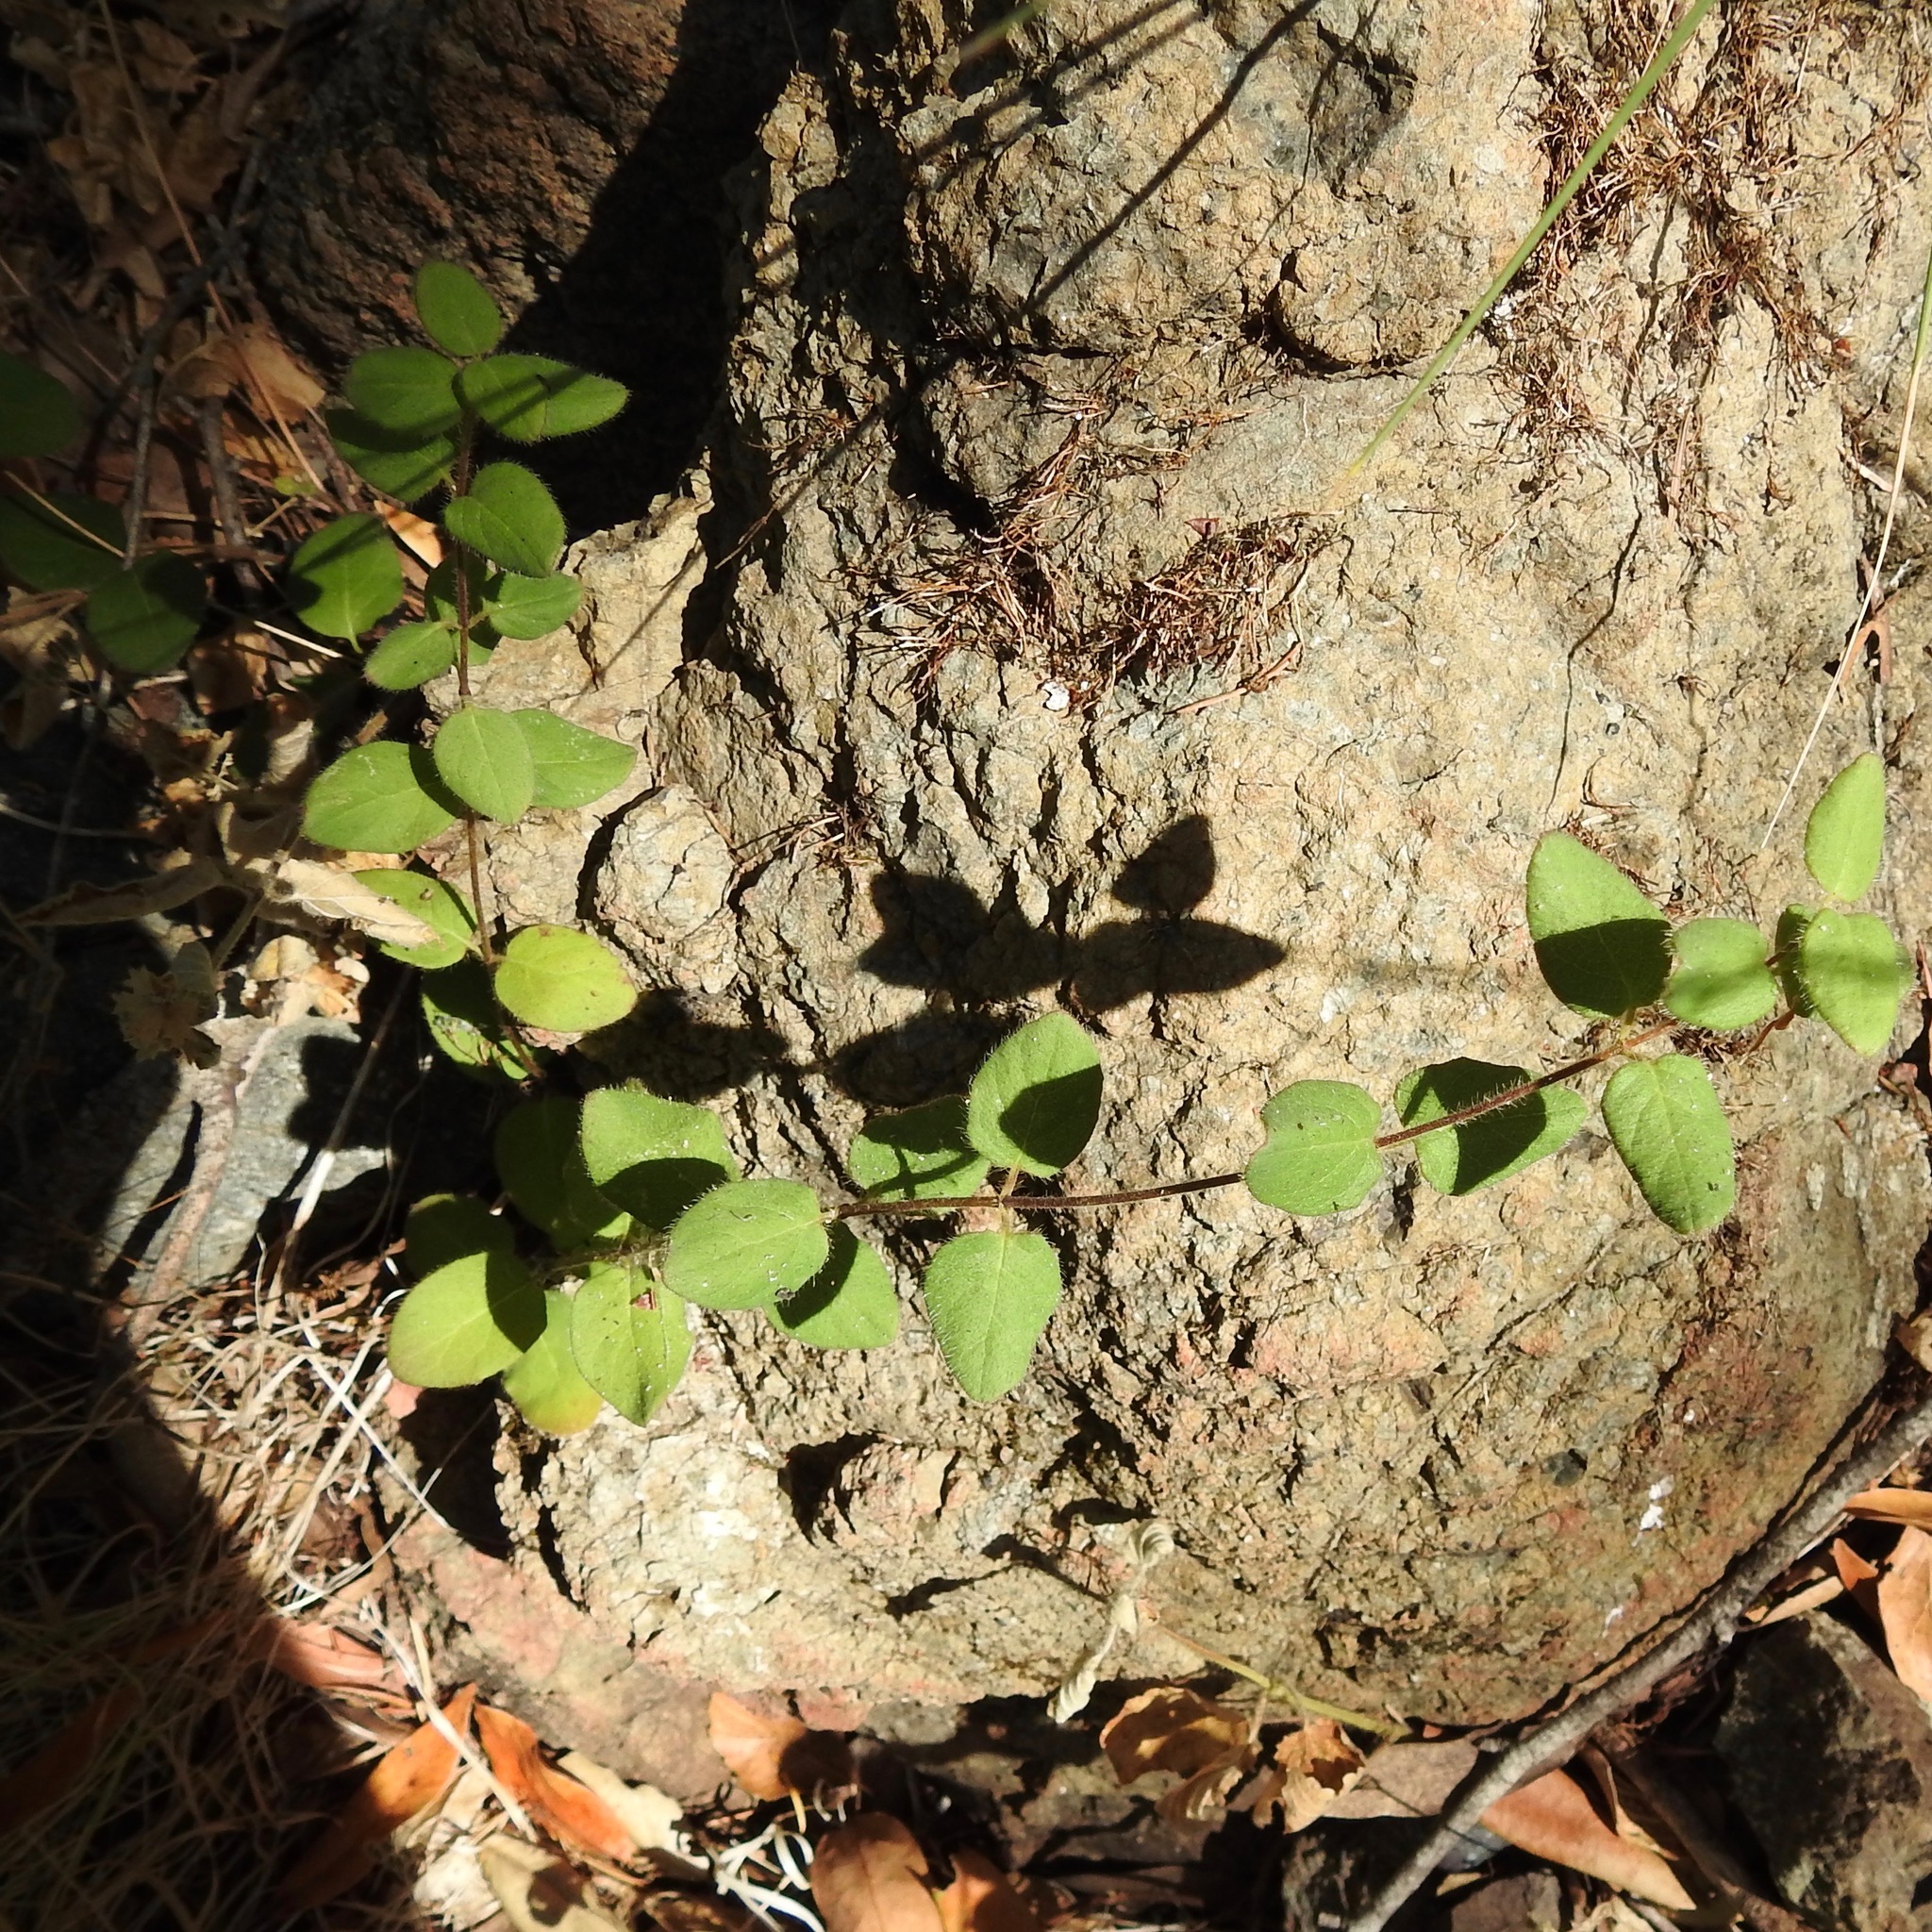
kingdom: Plantae
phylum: Tracheophyta
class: Magnoliopsida
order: Dipsacales
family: Caprifoliaceae
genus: Lonicera
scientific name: Lonicera hispidula
